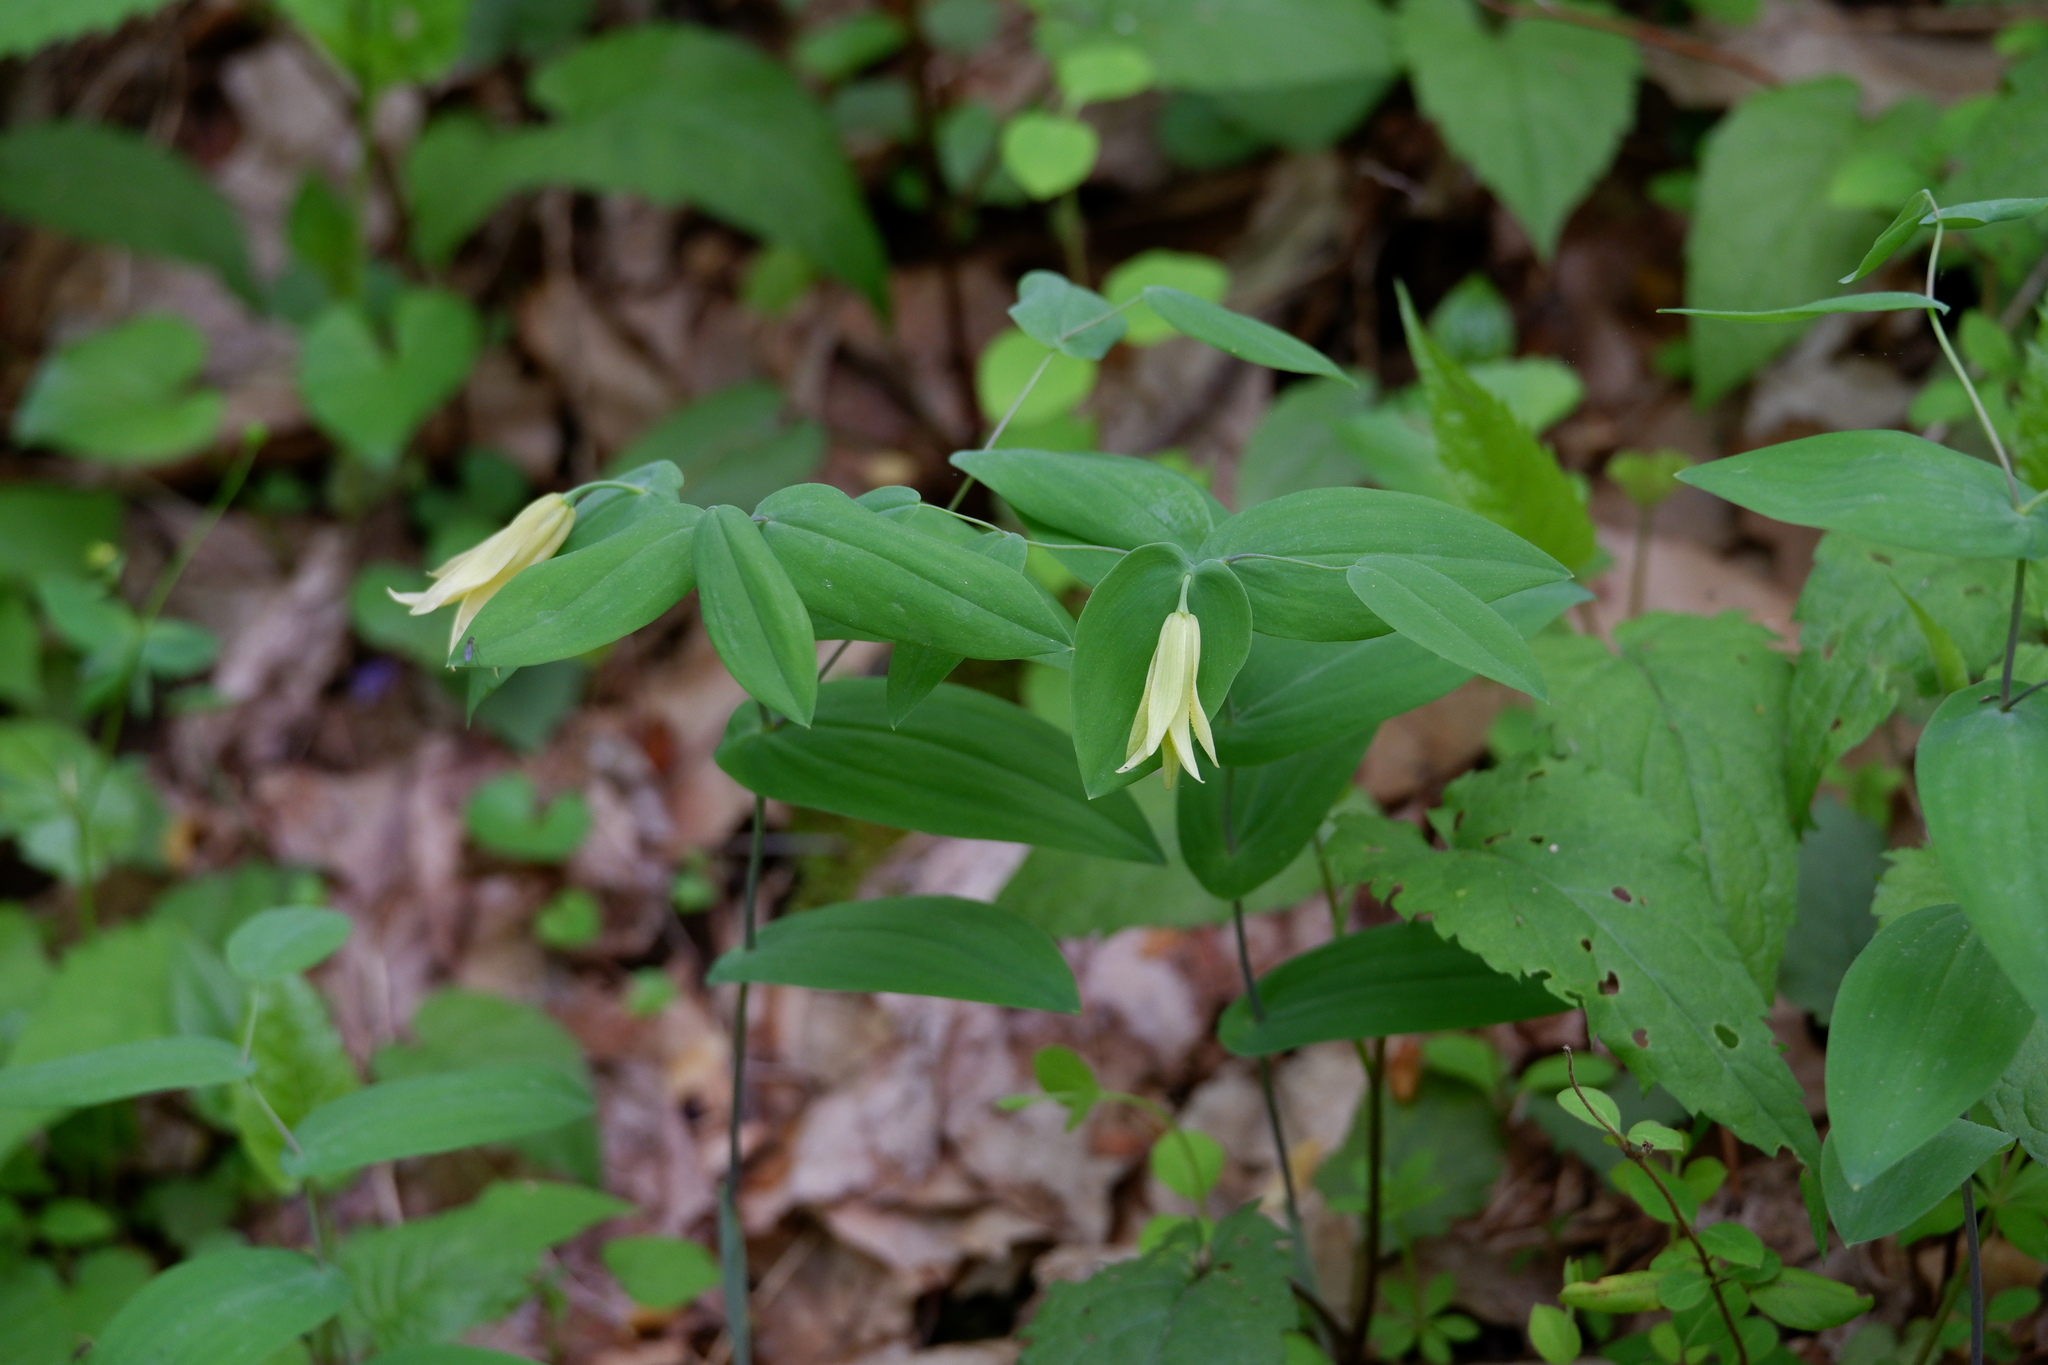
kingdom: Plantae
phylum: Tracheophyta
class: Liliopsida
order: Liliales
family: Colchicaceae
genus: Uvularia
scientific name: Uvularia perfoliata
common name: Perfoliate bellwort
